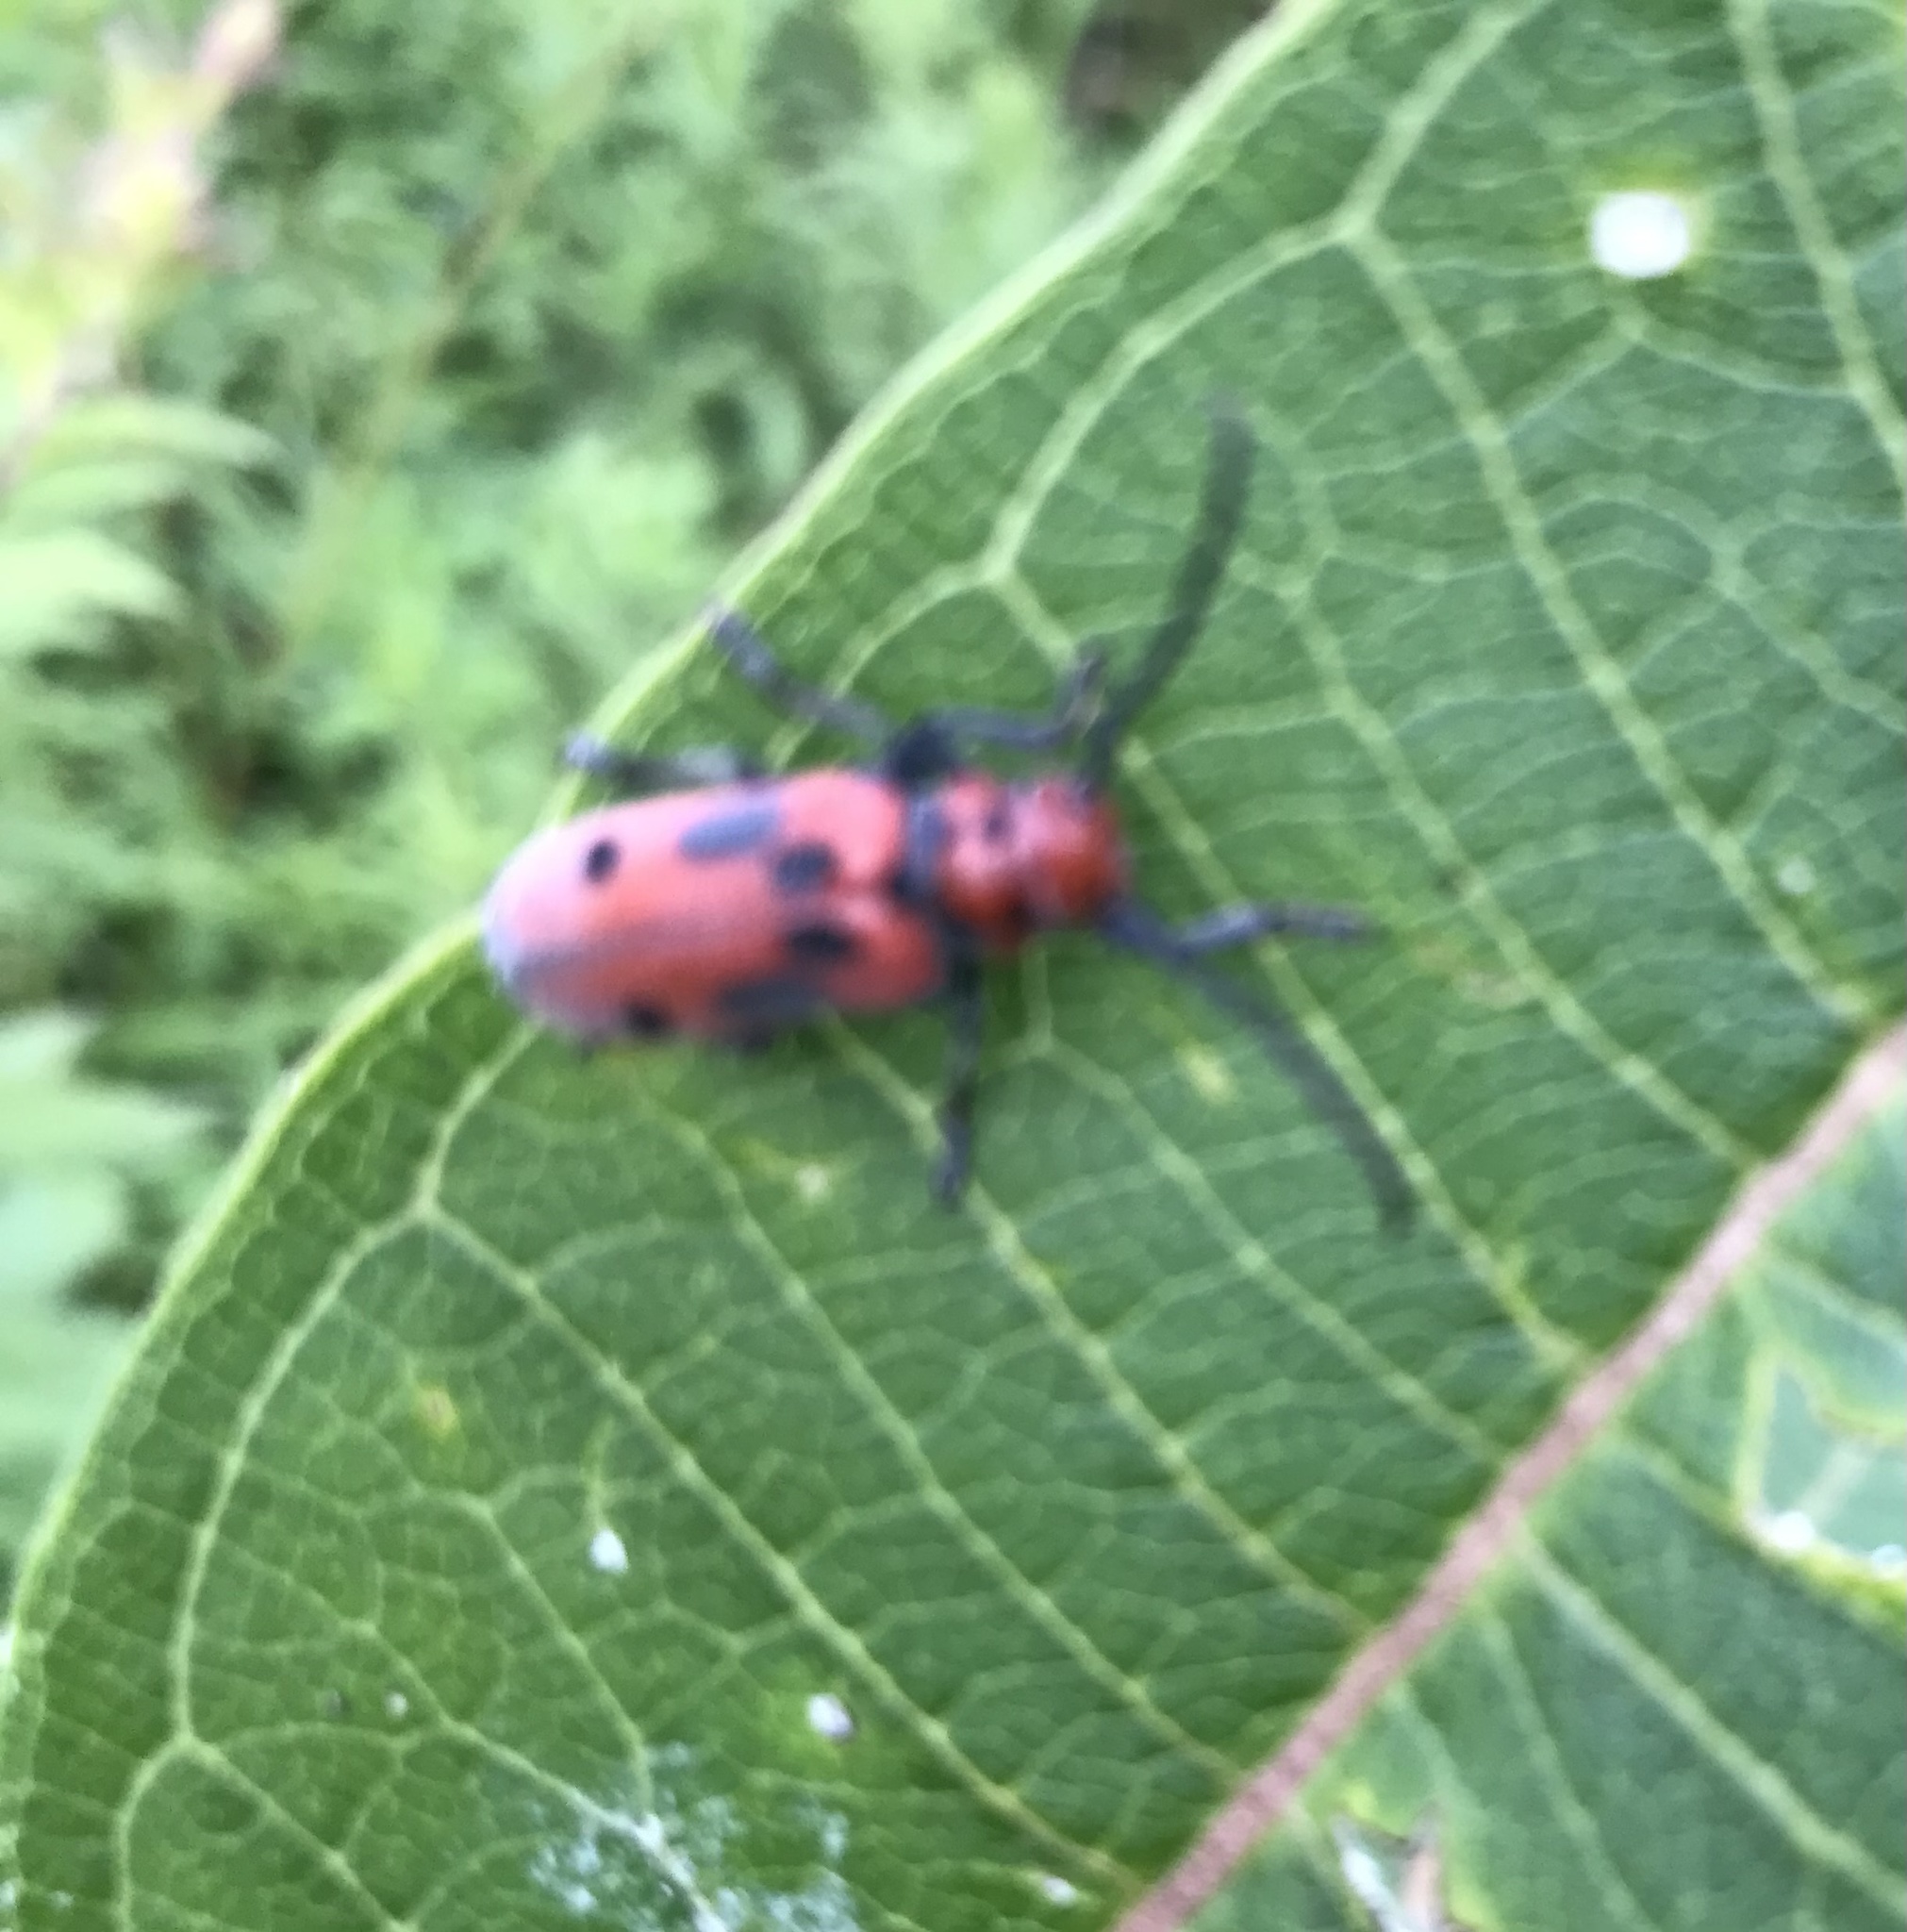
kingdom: Animalia
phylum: Arthropoda
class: Insecta
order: Coleoptera
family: Cerambycidae
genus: Tetraopes
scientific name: Tetraopes tetrophthalmus
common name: Red milkweed beetle
